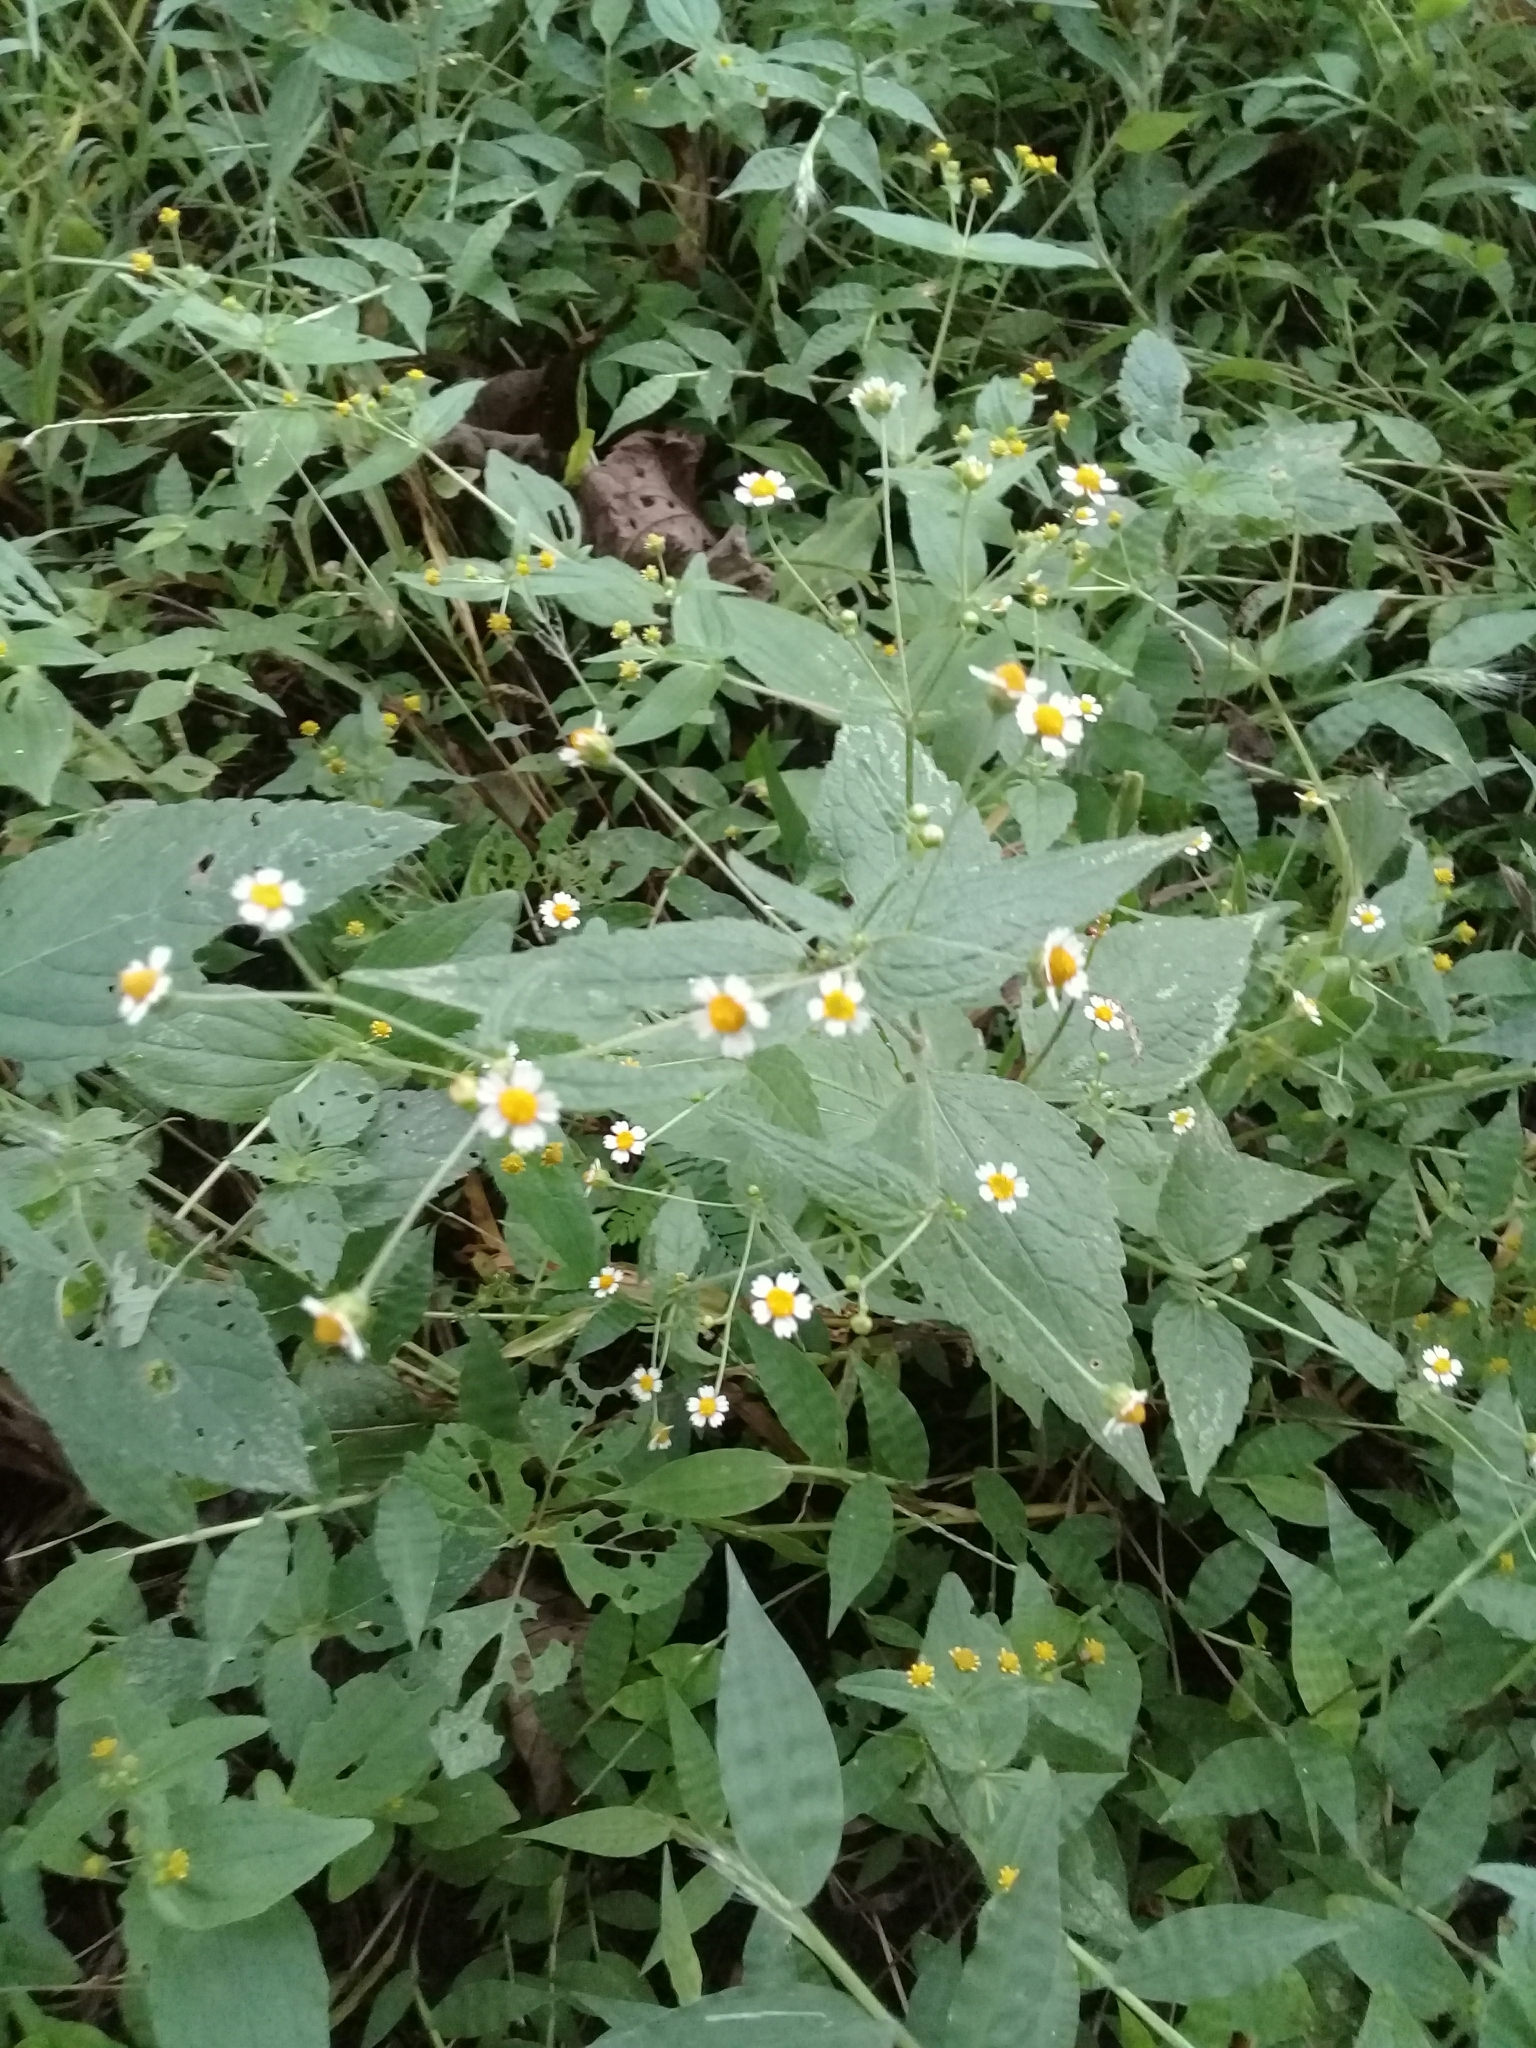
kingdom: Plantae
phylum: Tracheophyta
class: Magnoliopsida
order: Asterales
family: Asteraceae
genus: Galinsoga
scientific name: Galinsoga quadriradiata
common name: Shaggy soldier
